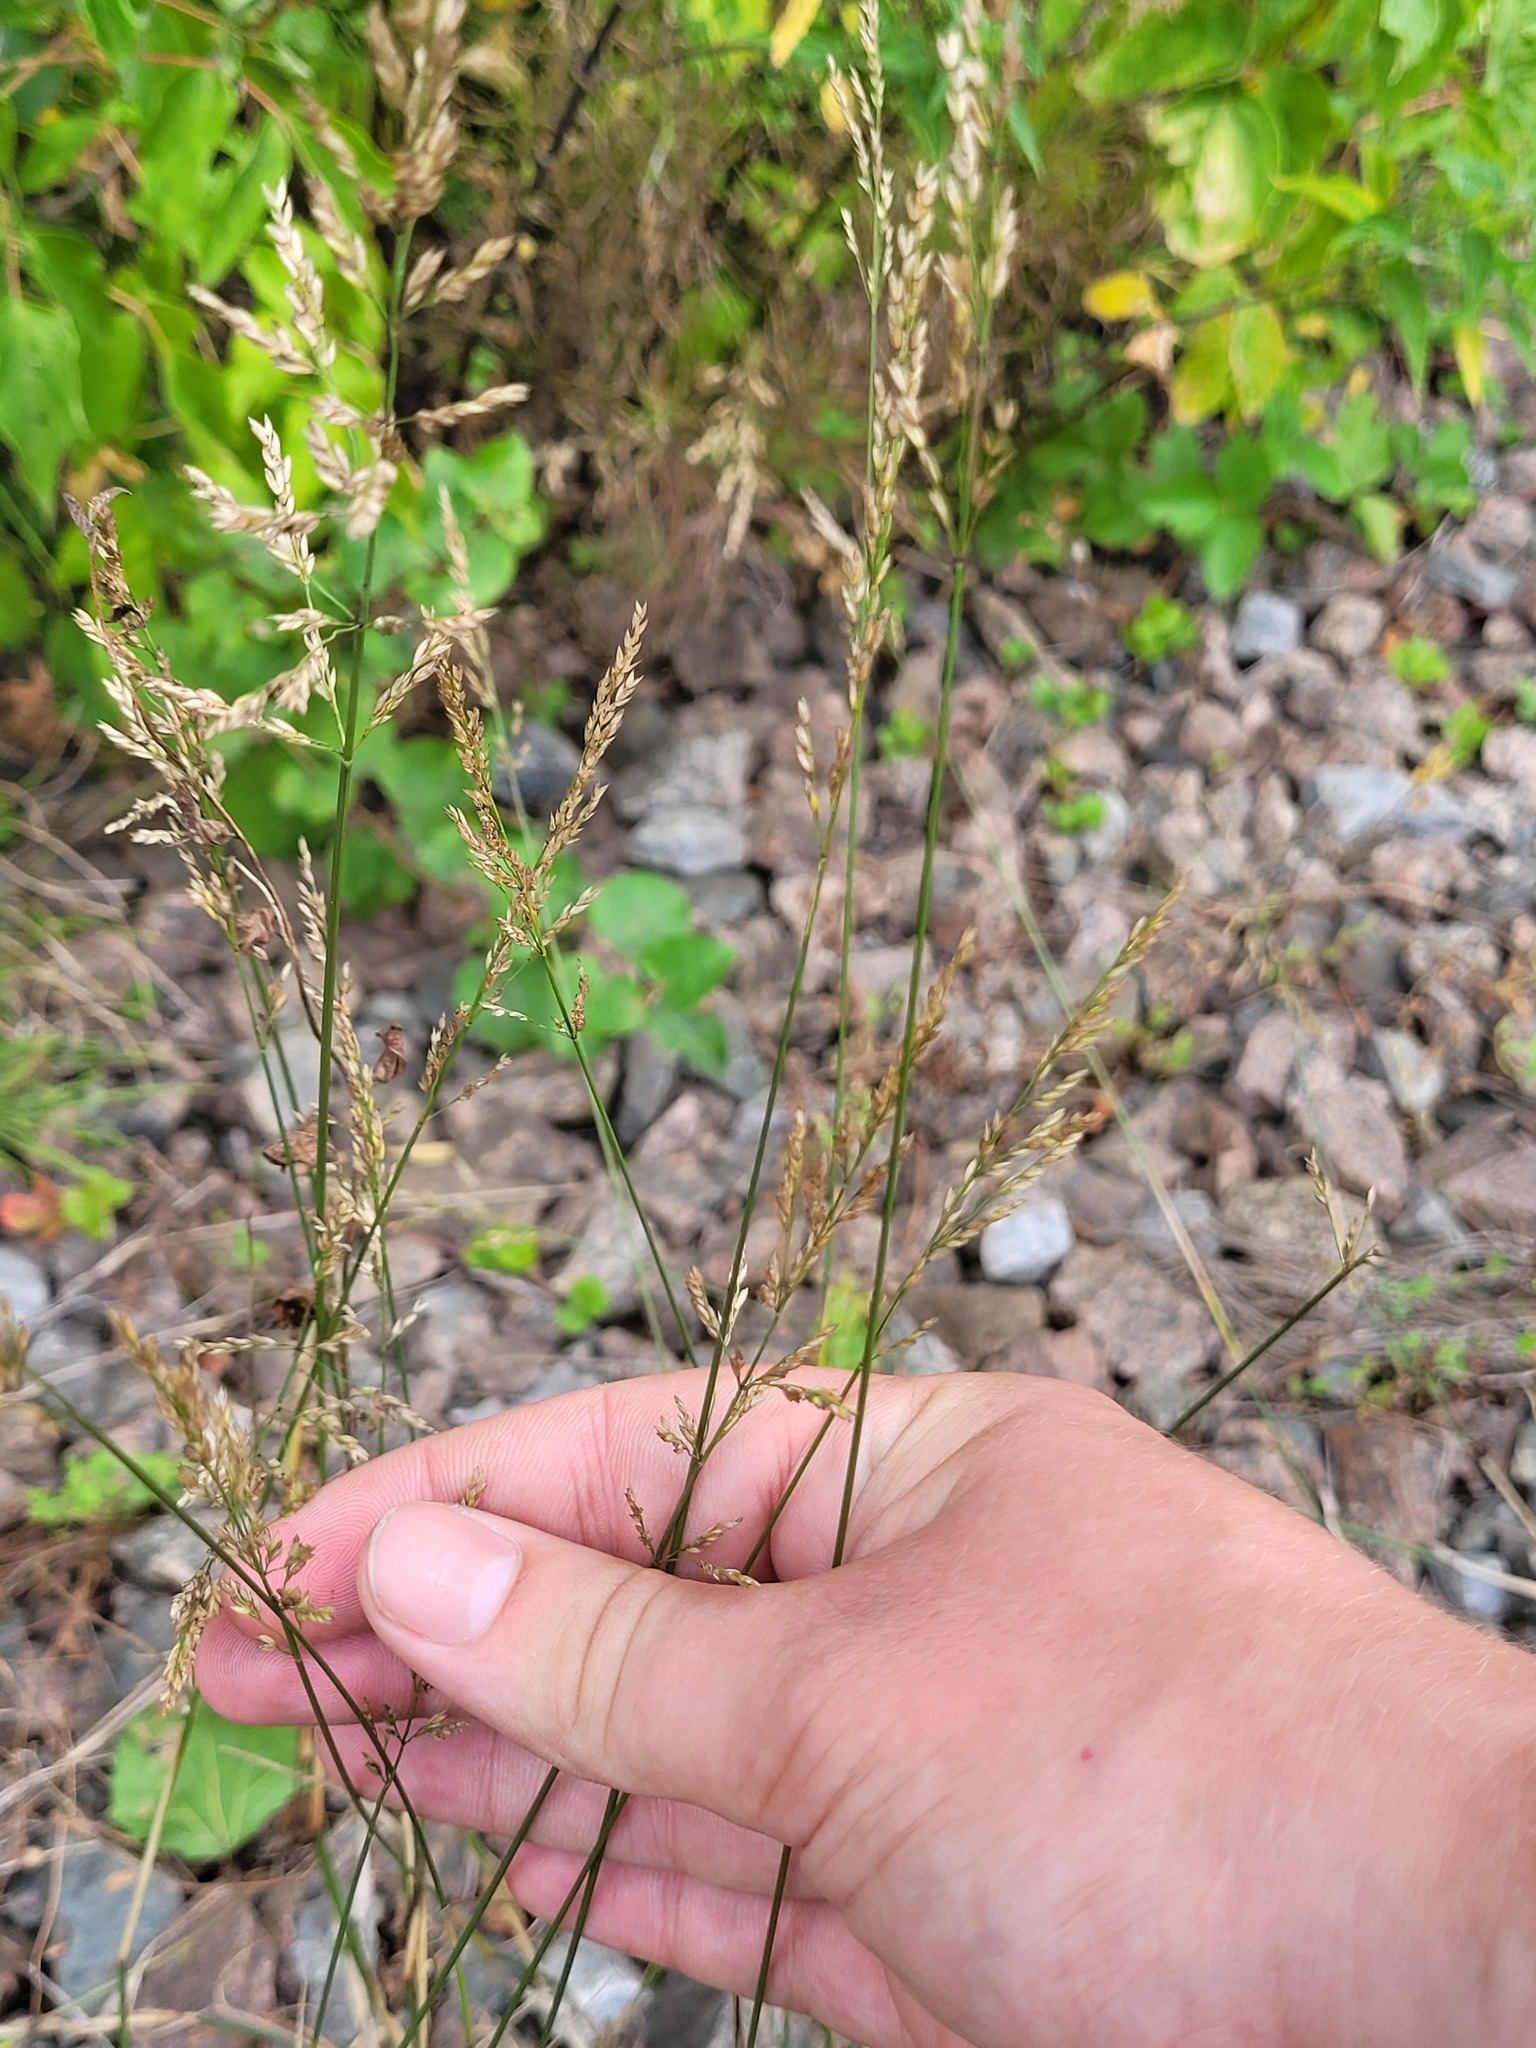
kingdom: Plantae
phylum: Tracheophyta
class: Liliopsida
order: Poales
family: Poaceae
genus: Poa
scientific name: Poa palustris
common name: Swamp meadow-grass
